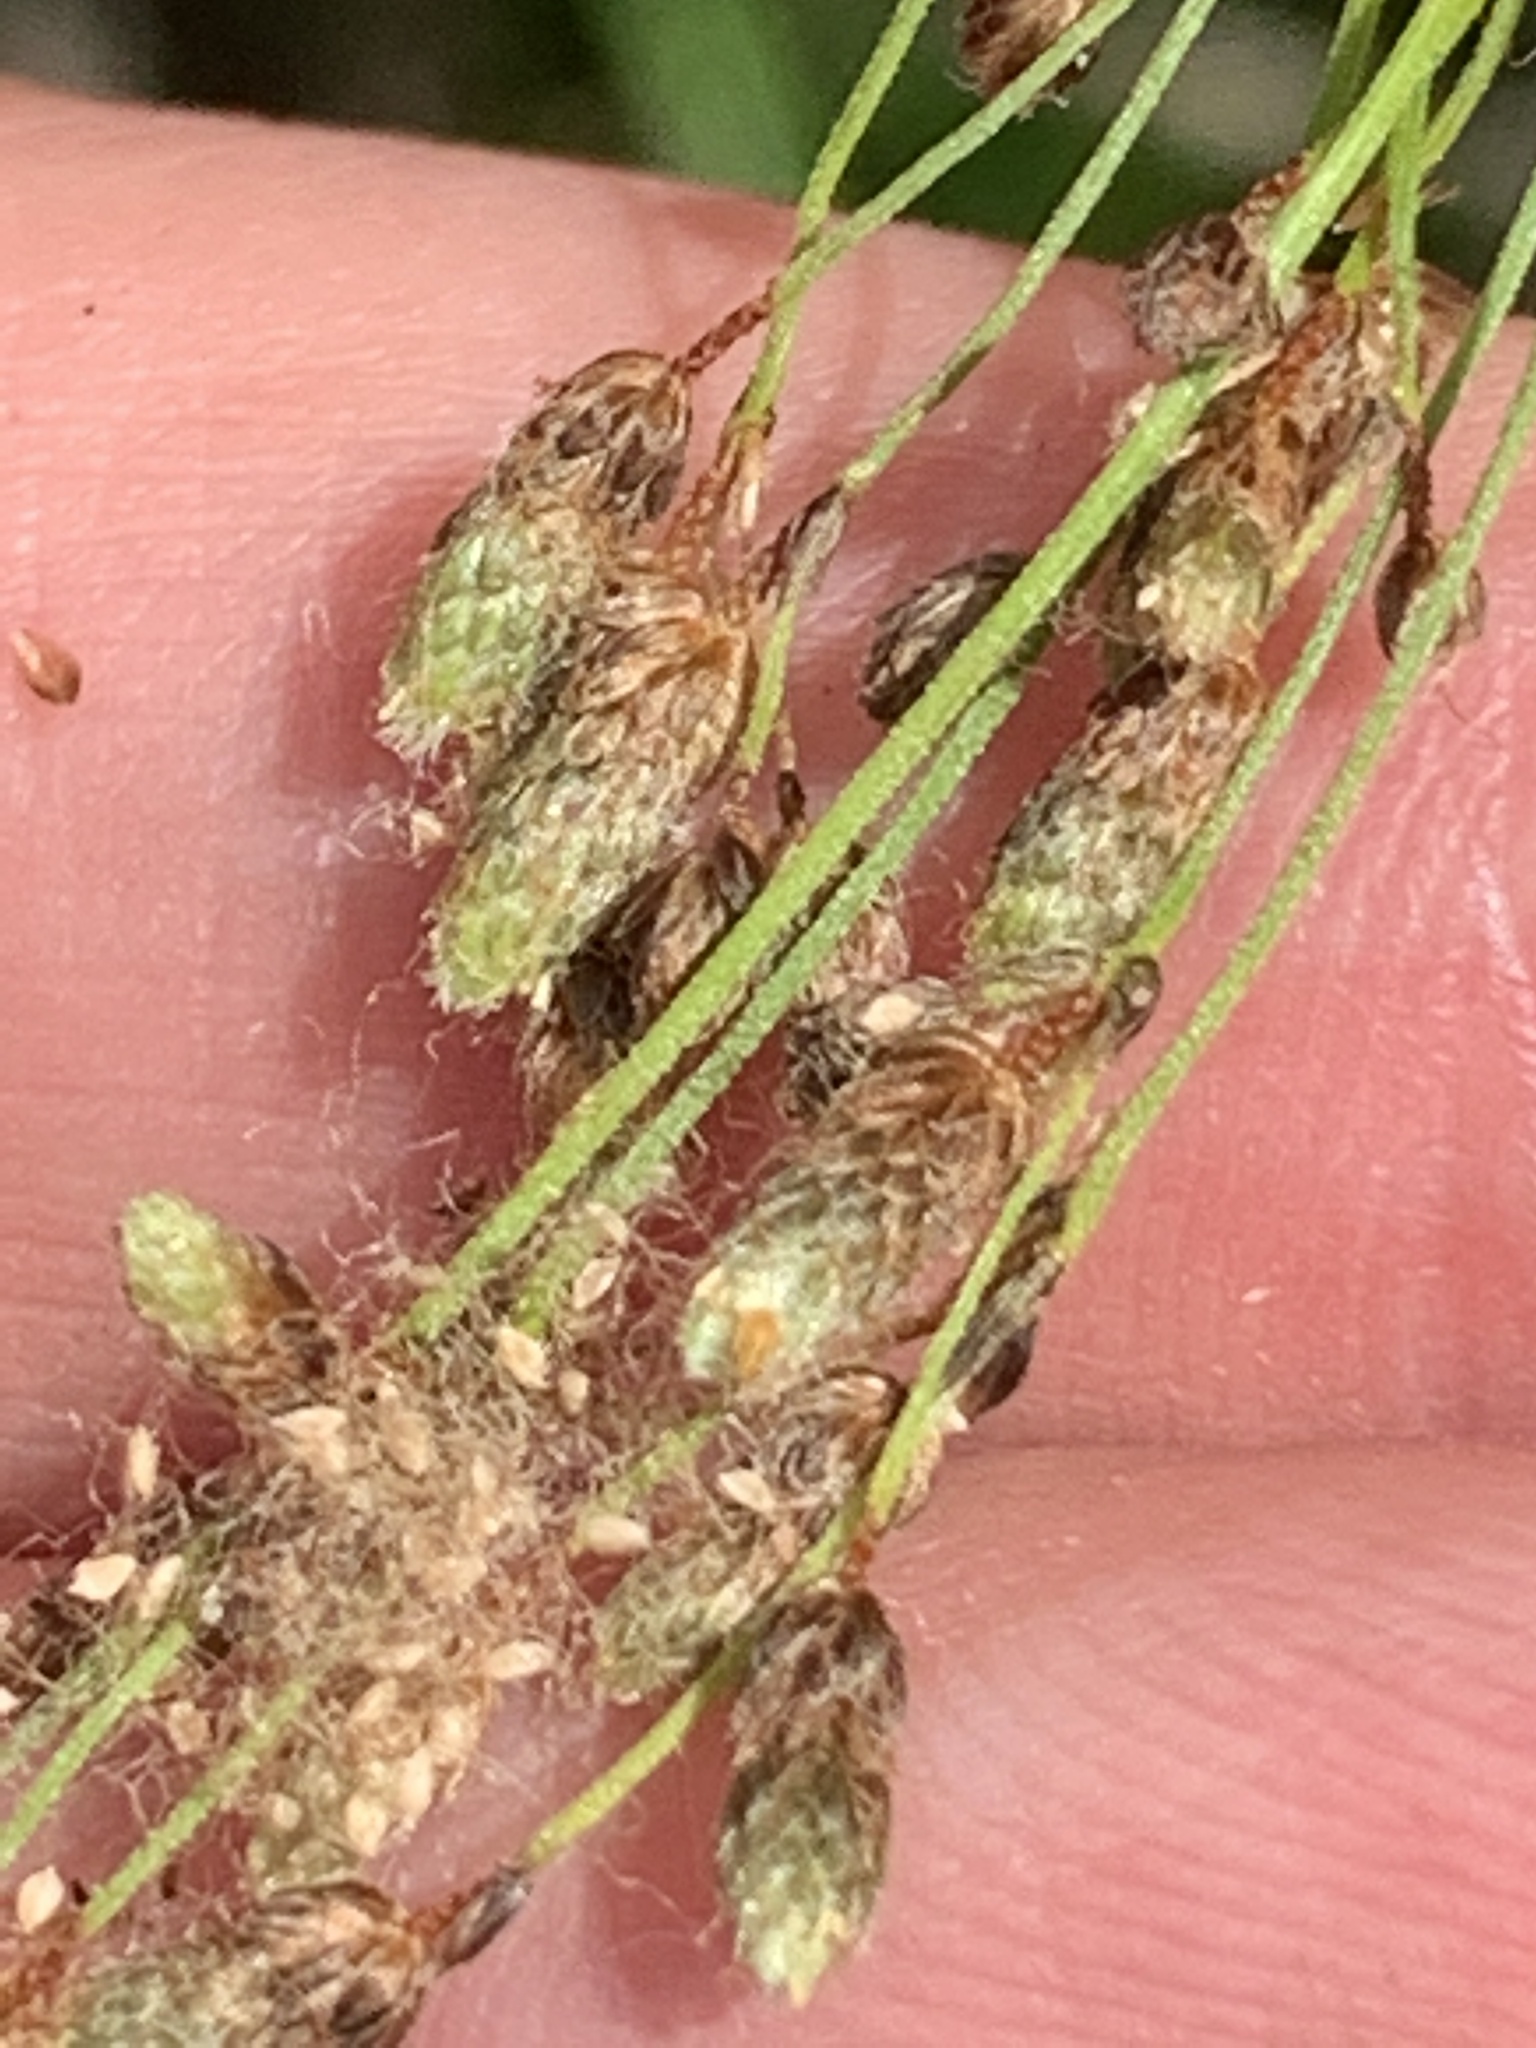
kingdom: Plantae
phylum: Tracheophyta
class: Liliopsida
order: Poales
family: Cyperaceae
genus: Scirpus
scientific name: Scirpus atrocinctus
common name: Black-girdled bulrush
